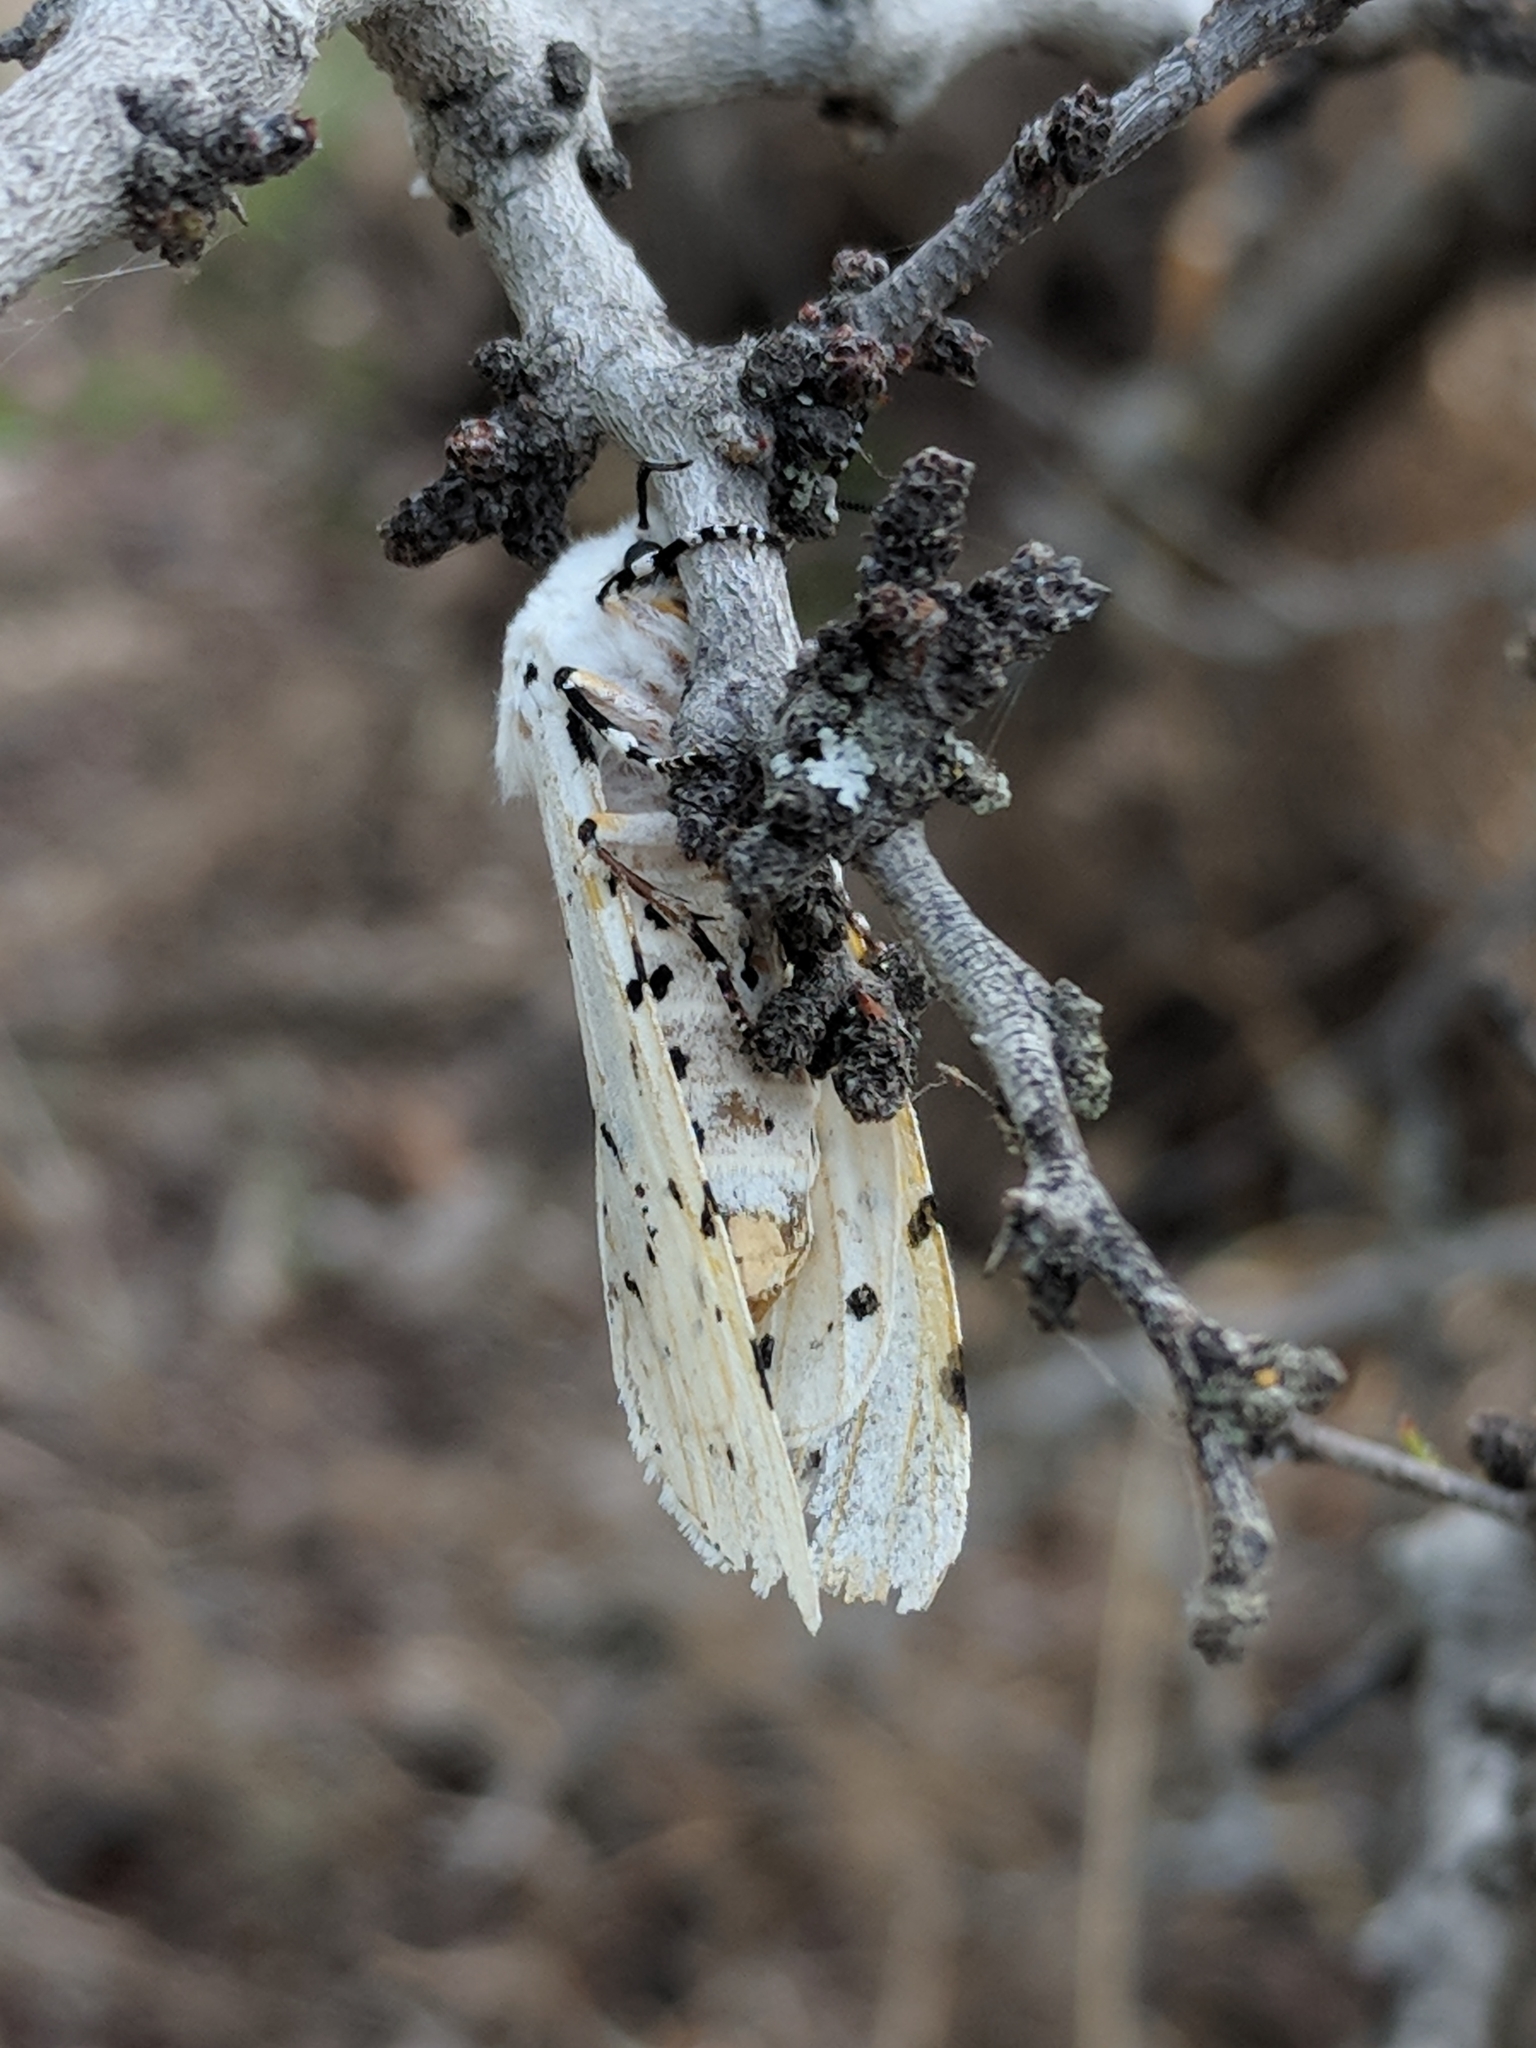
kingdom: Animalia
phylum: Arthropoda
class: Insecta
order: Lepidoptera
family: Erebidae
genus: Estigmene
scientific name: Estigmene acrea
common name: Salt marsh moth
